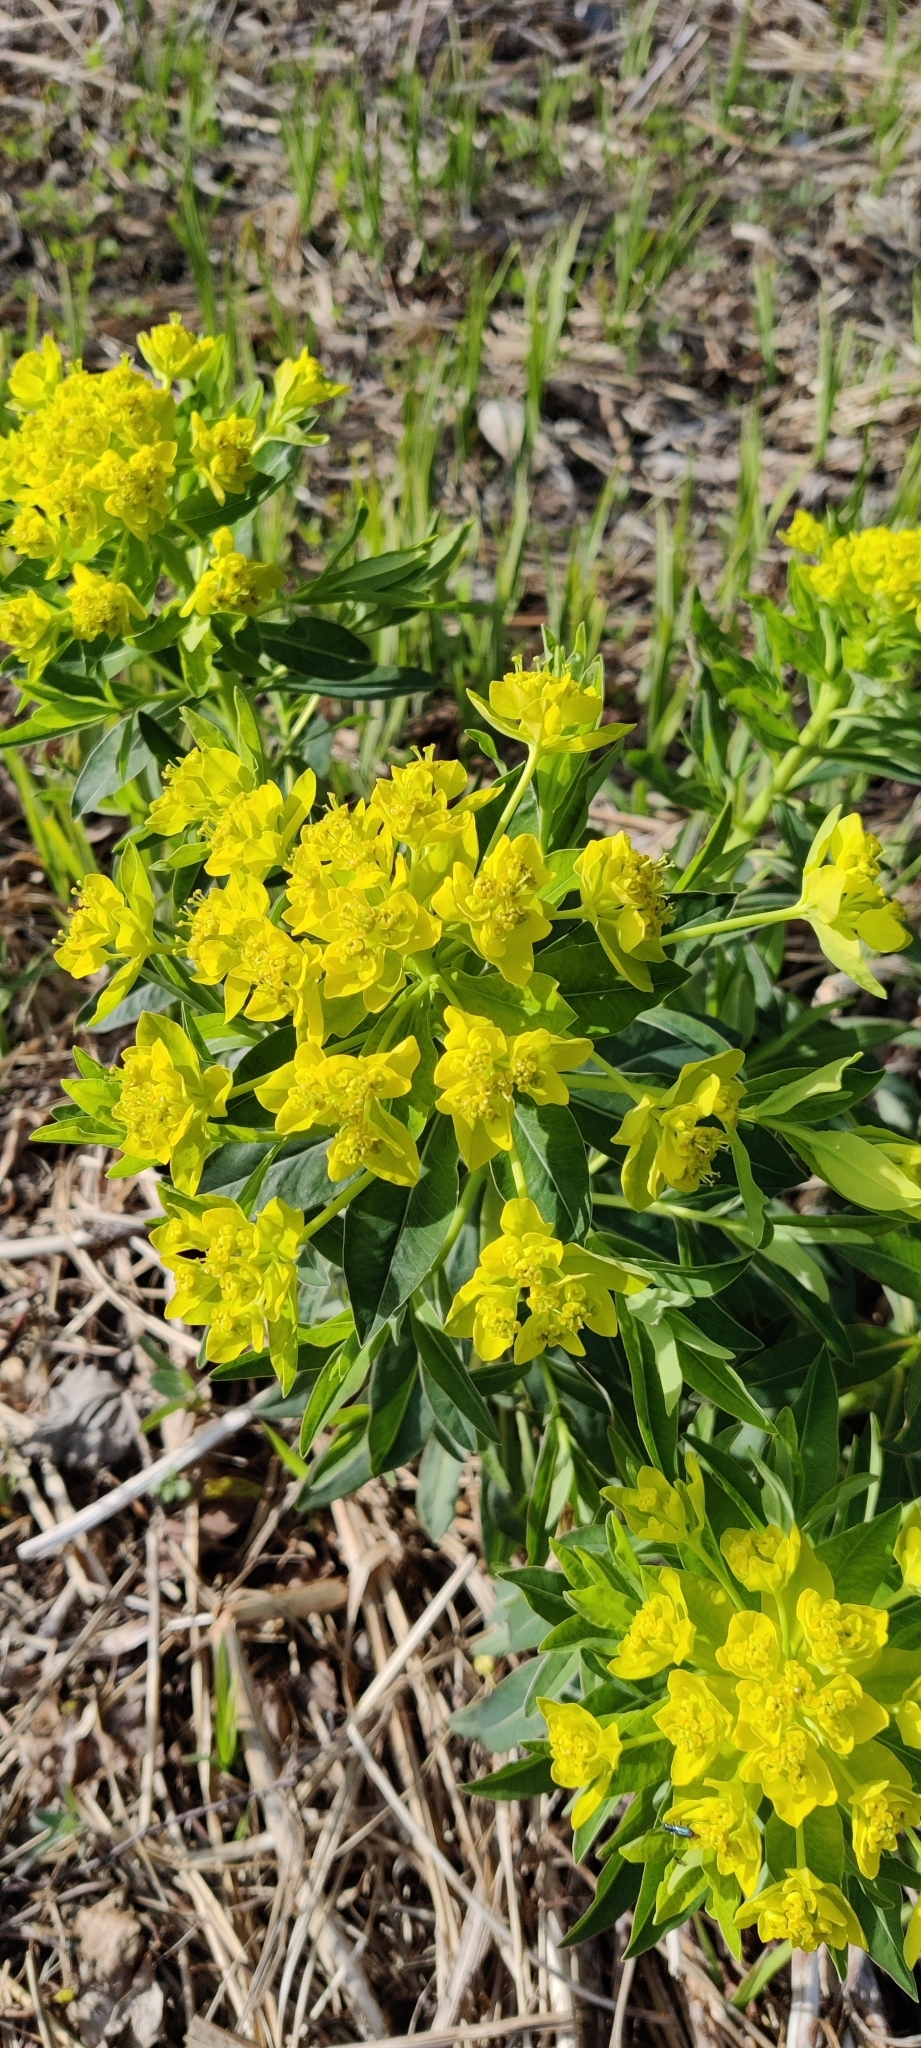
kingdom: Plantae
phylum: Tracheophyta
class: Magnoliopsida
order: Malpighiales
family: Euphorbiaceae
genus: Euphorbia
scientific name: Euphorbia palustris
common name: Marsh spurge
